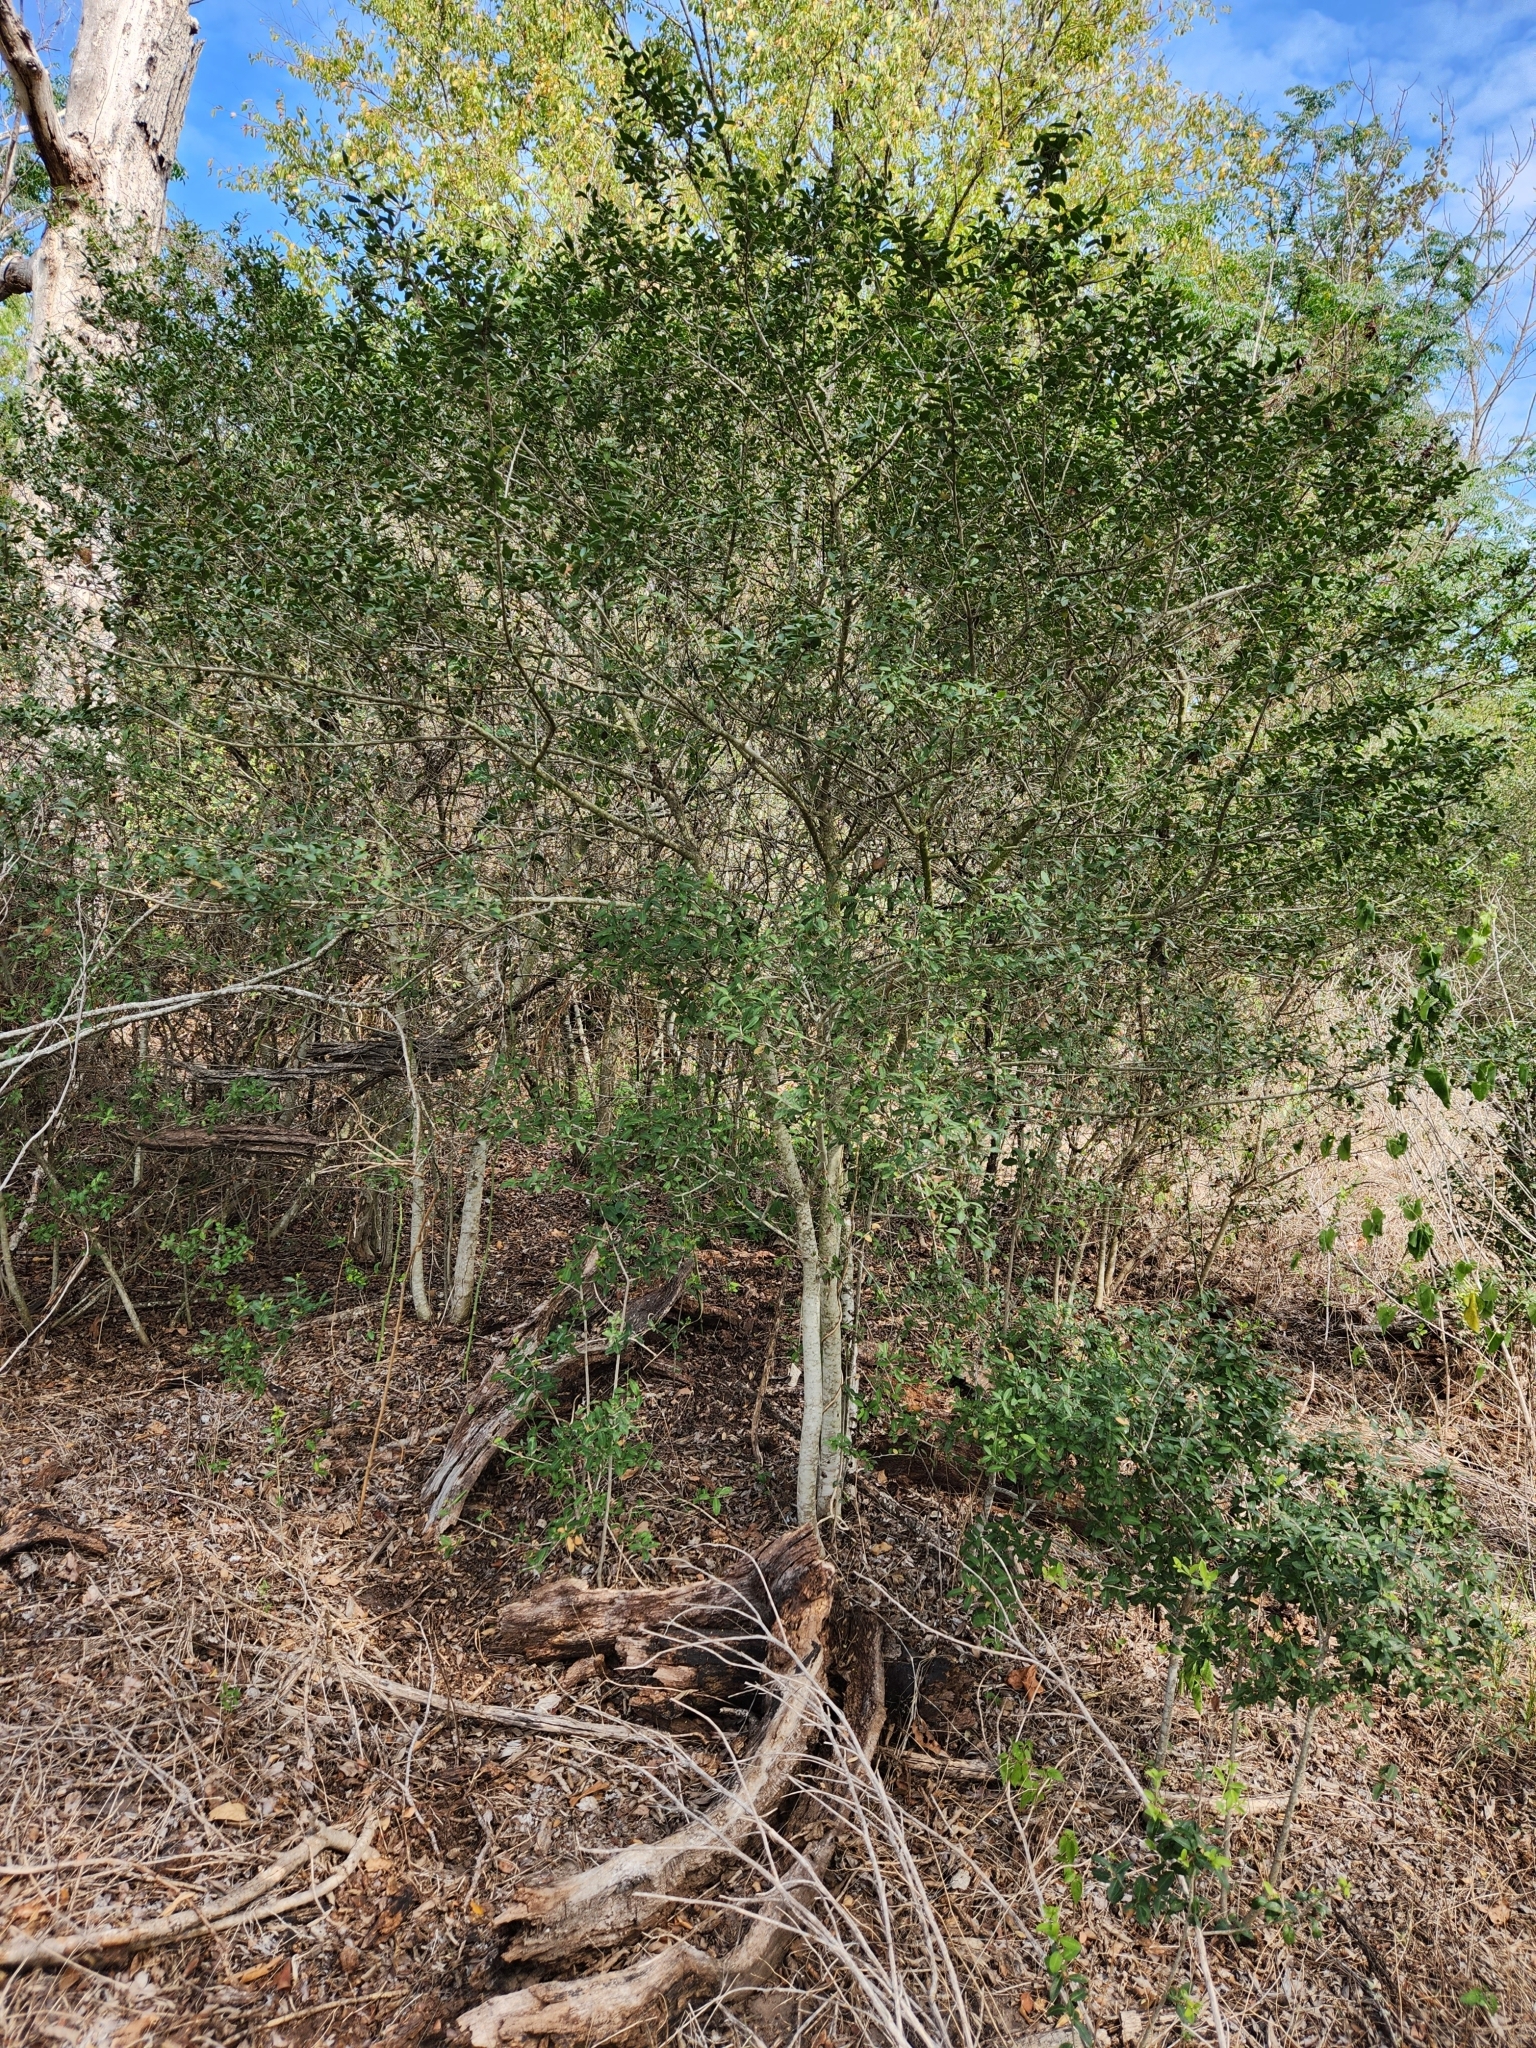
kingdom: Plantae
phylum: Tracheophyta
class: Magnoliopsida
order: Aquifoliales
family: Aquifoliaceae
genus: Ilex
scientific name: Ilex vomitoria
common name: Yaupon holly
